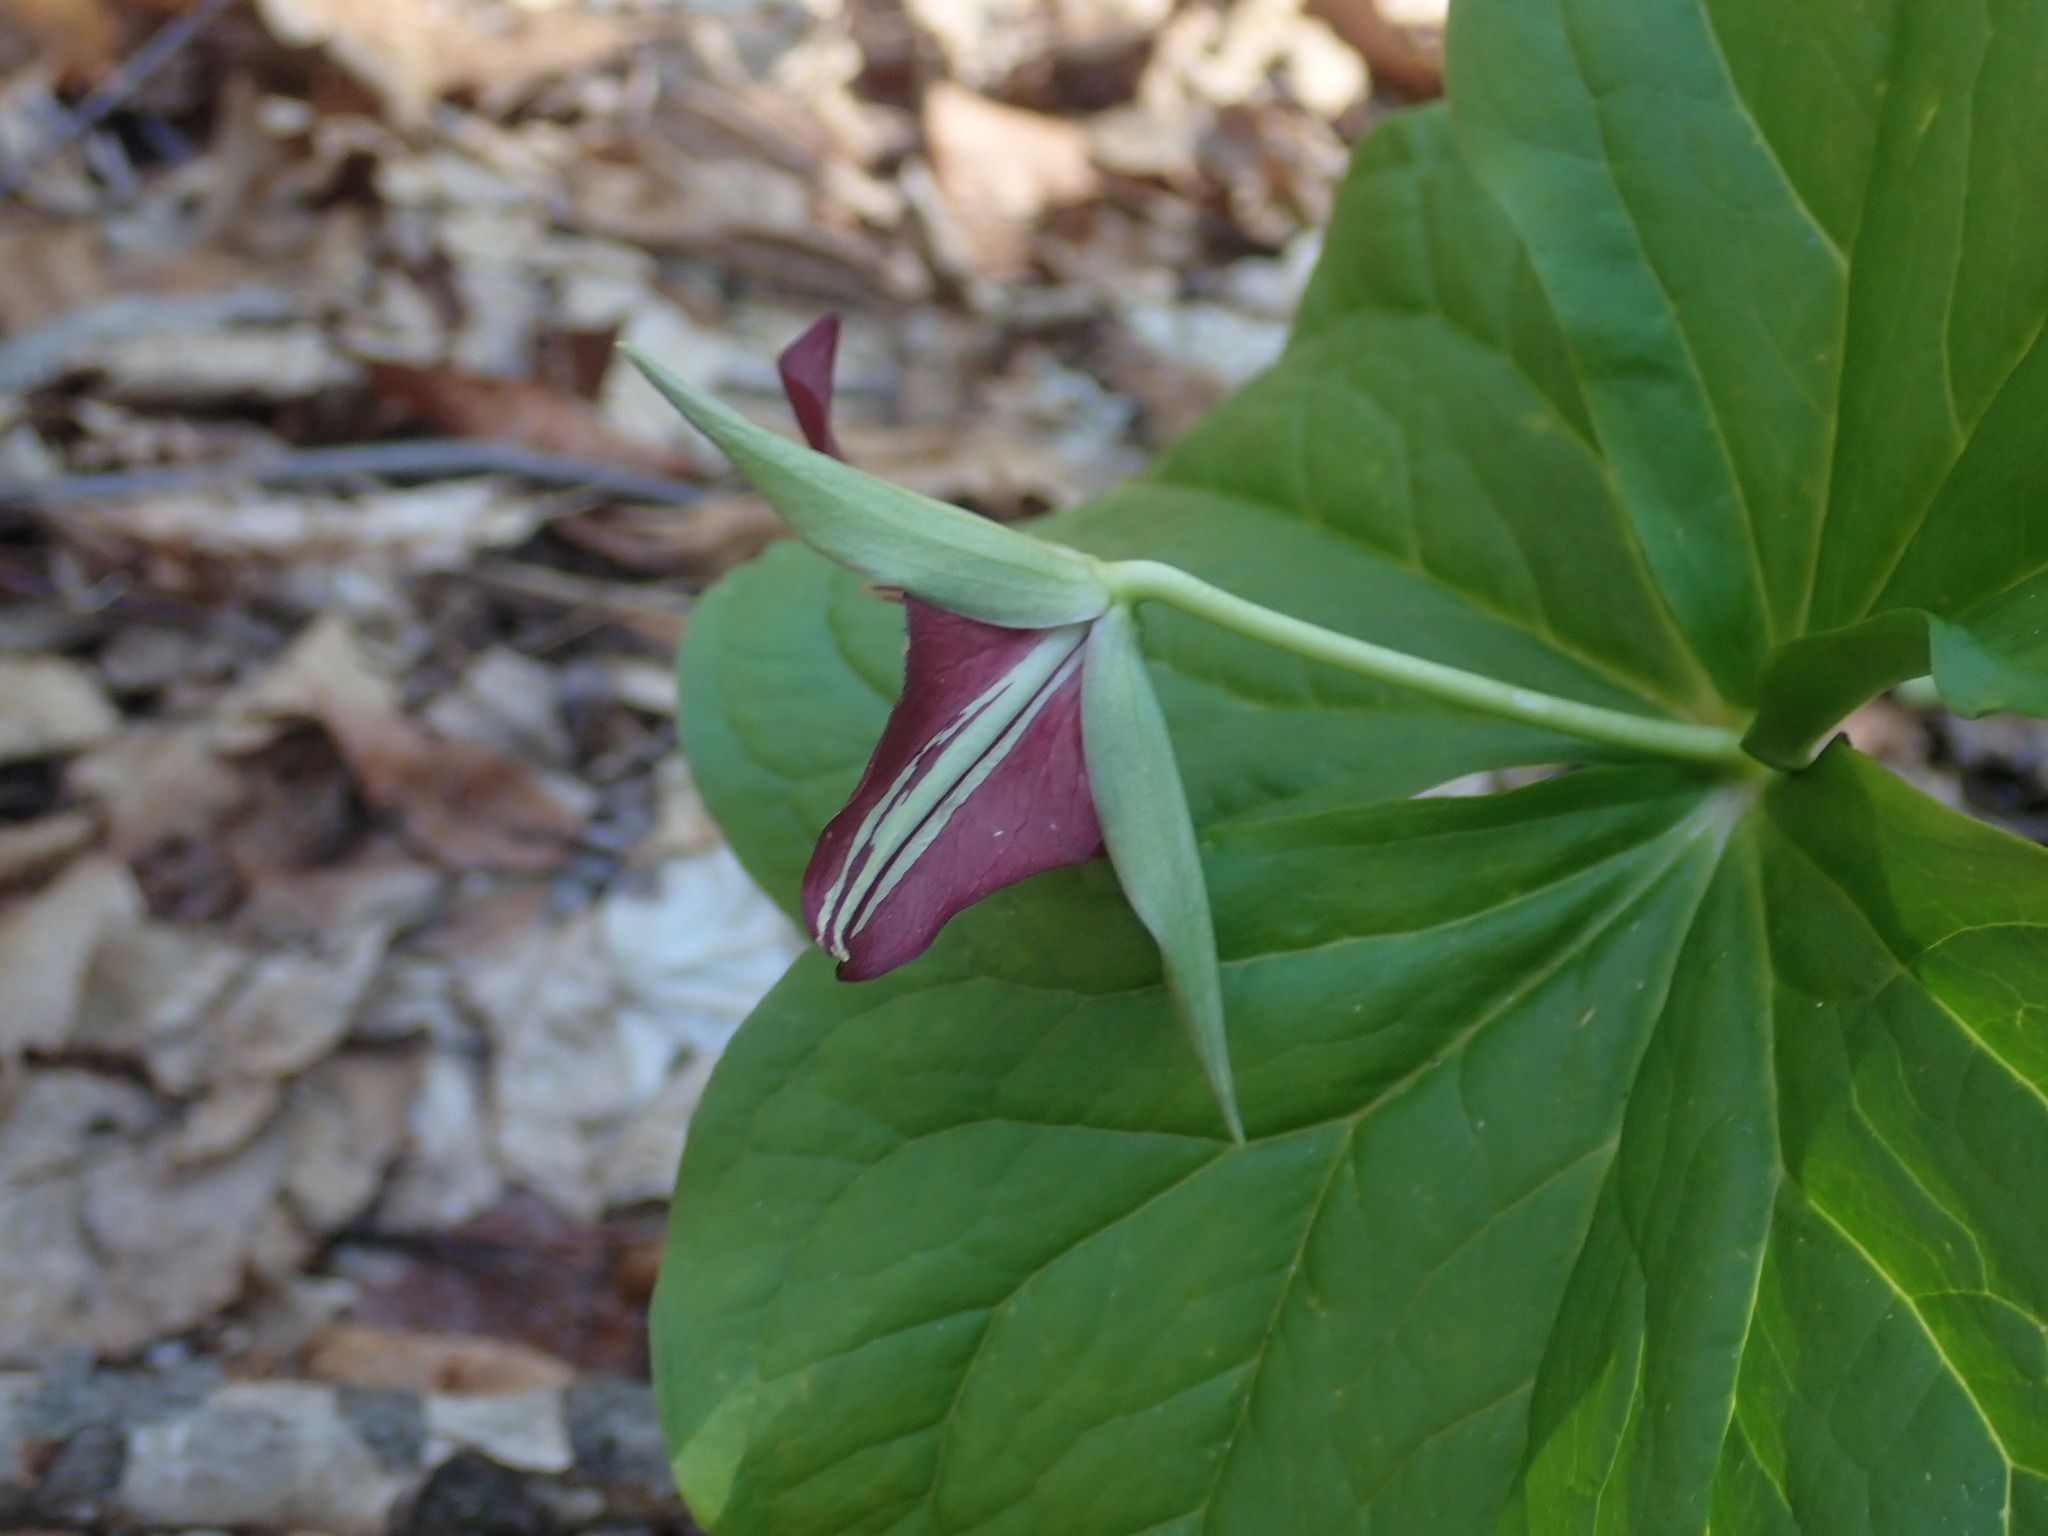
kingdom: Plantae
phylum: Tracheophyta
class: Liliopsida
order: Liliales
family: Melanthiaceae
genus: Trillium
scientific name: Trillium erectum
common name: Purple trillium
